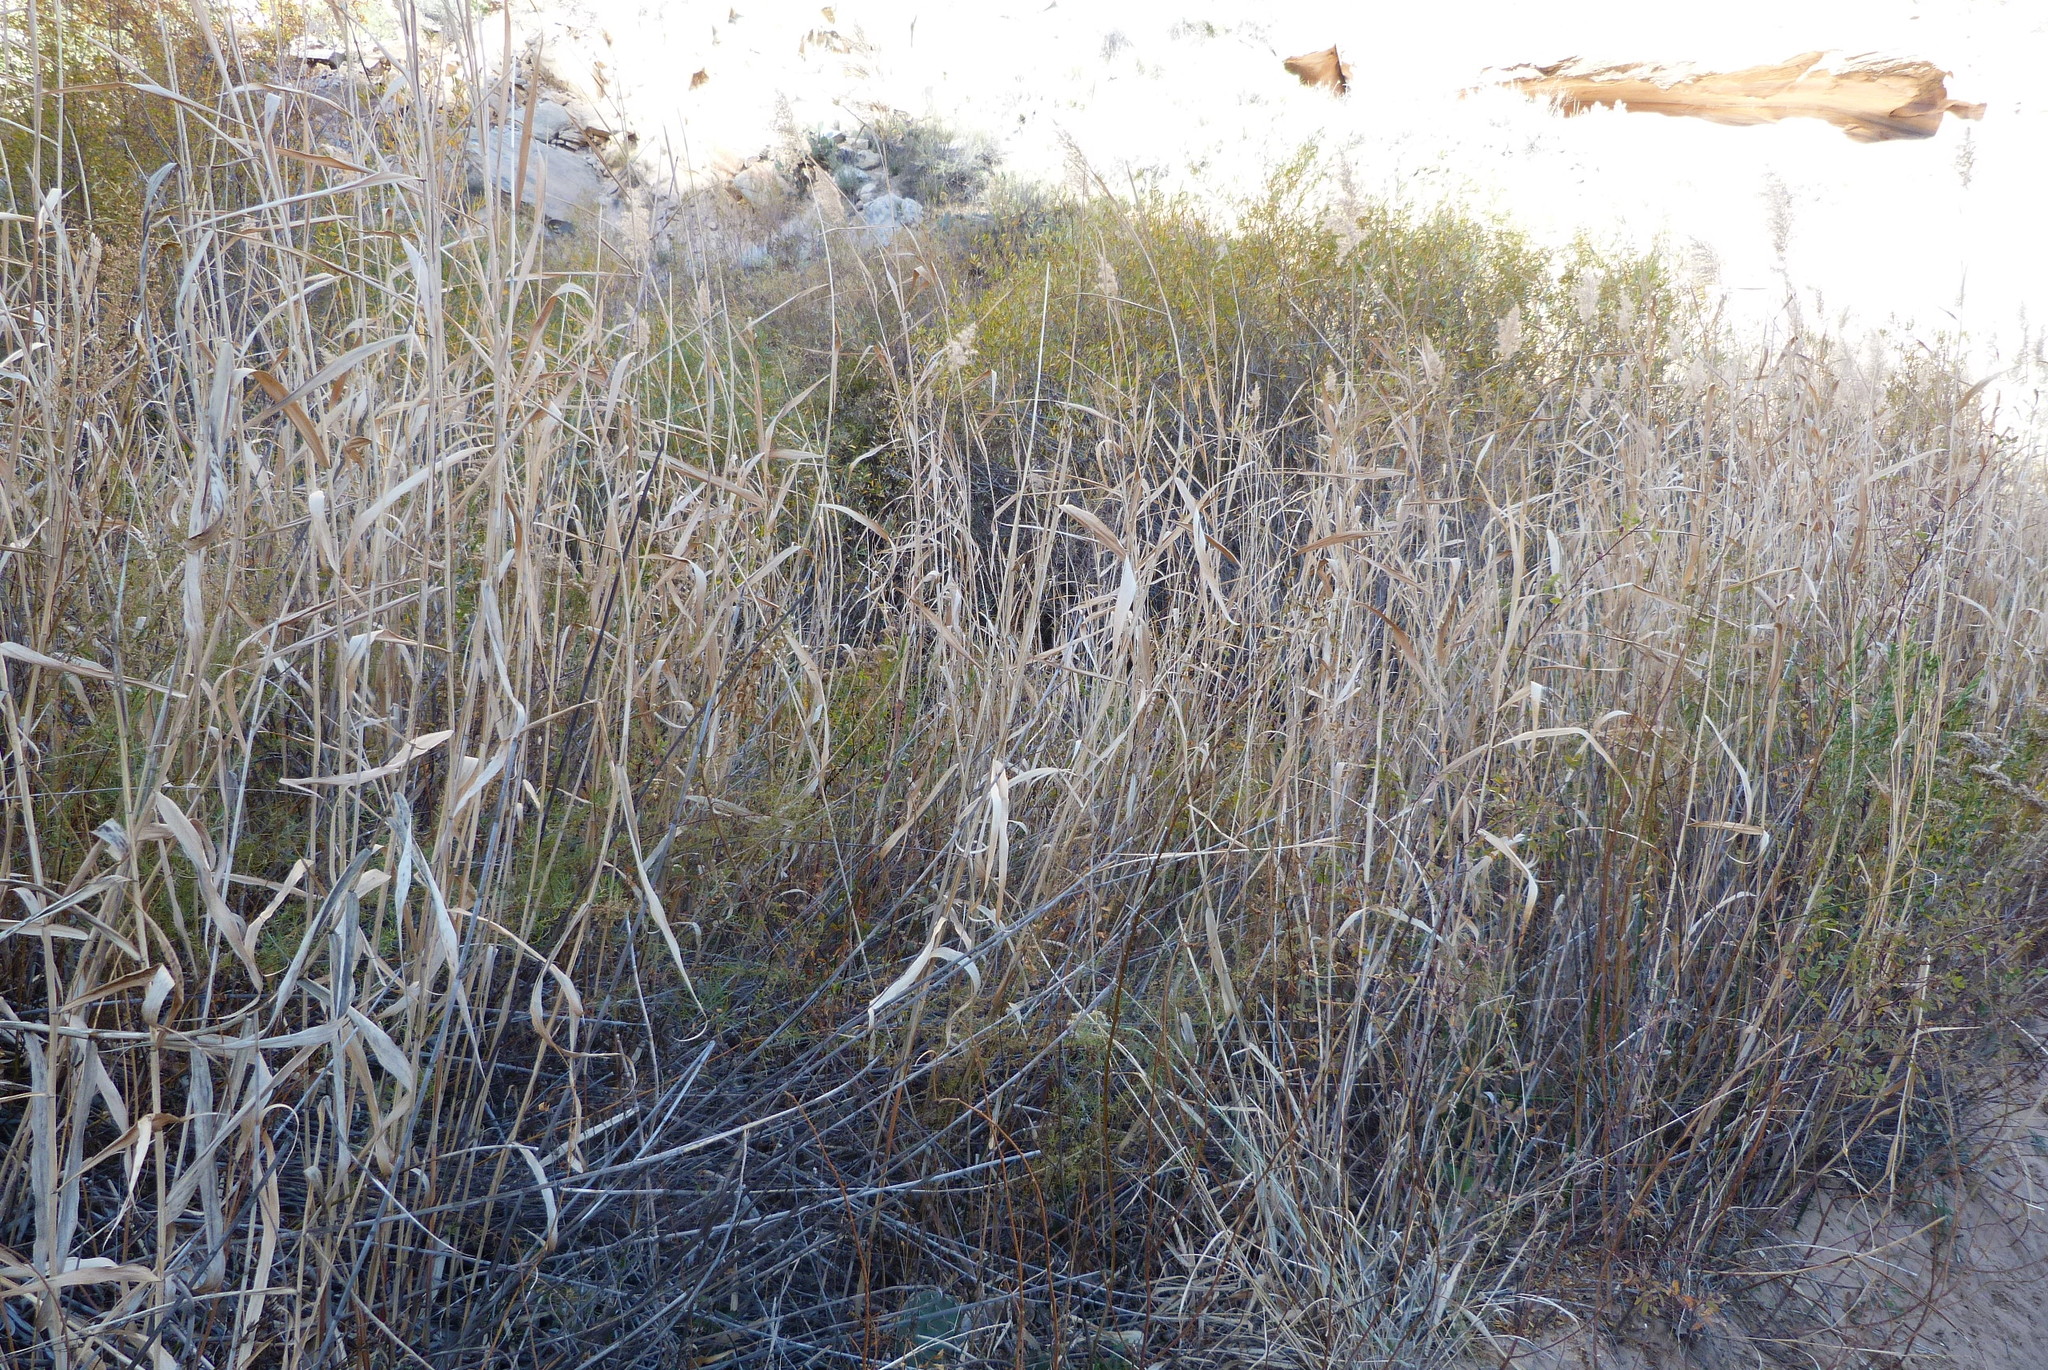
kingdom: Plantae
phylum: Tracheophyta
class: Liliopsida
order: Poales
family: Poaceae
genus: Phragmites
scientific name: Phragmites australis
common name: Common reed
